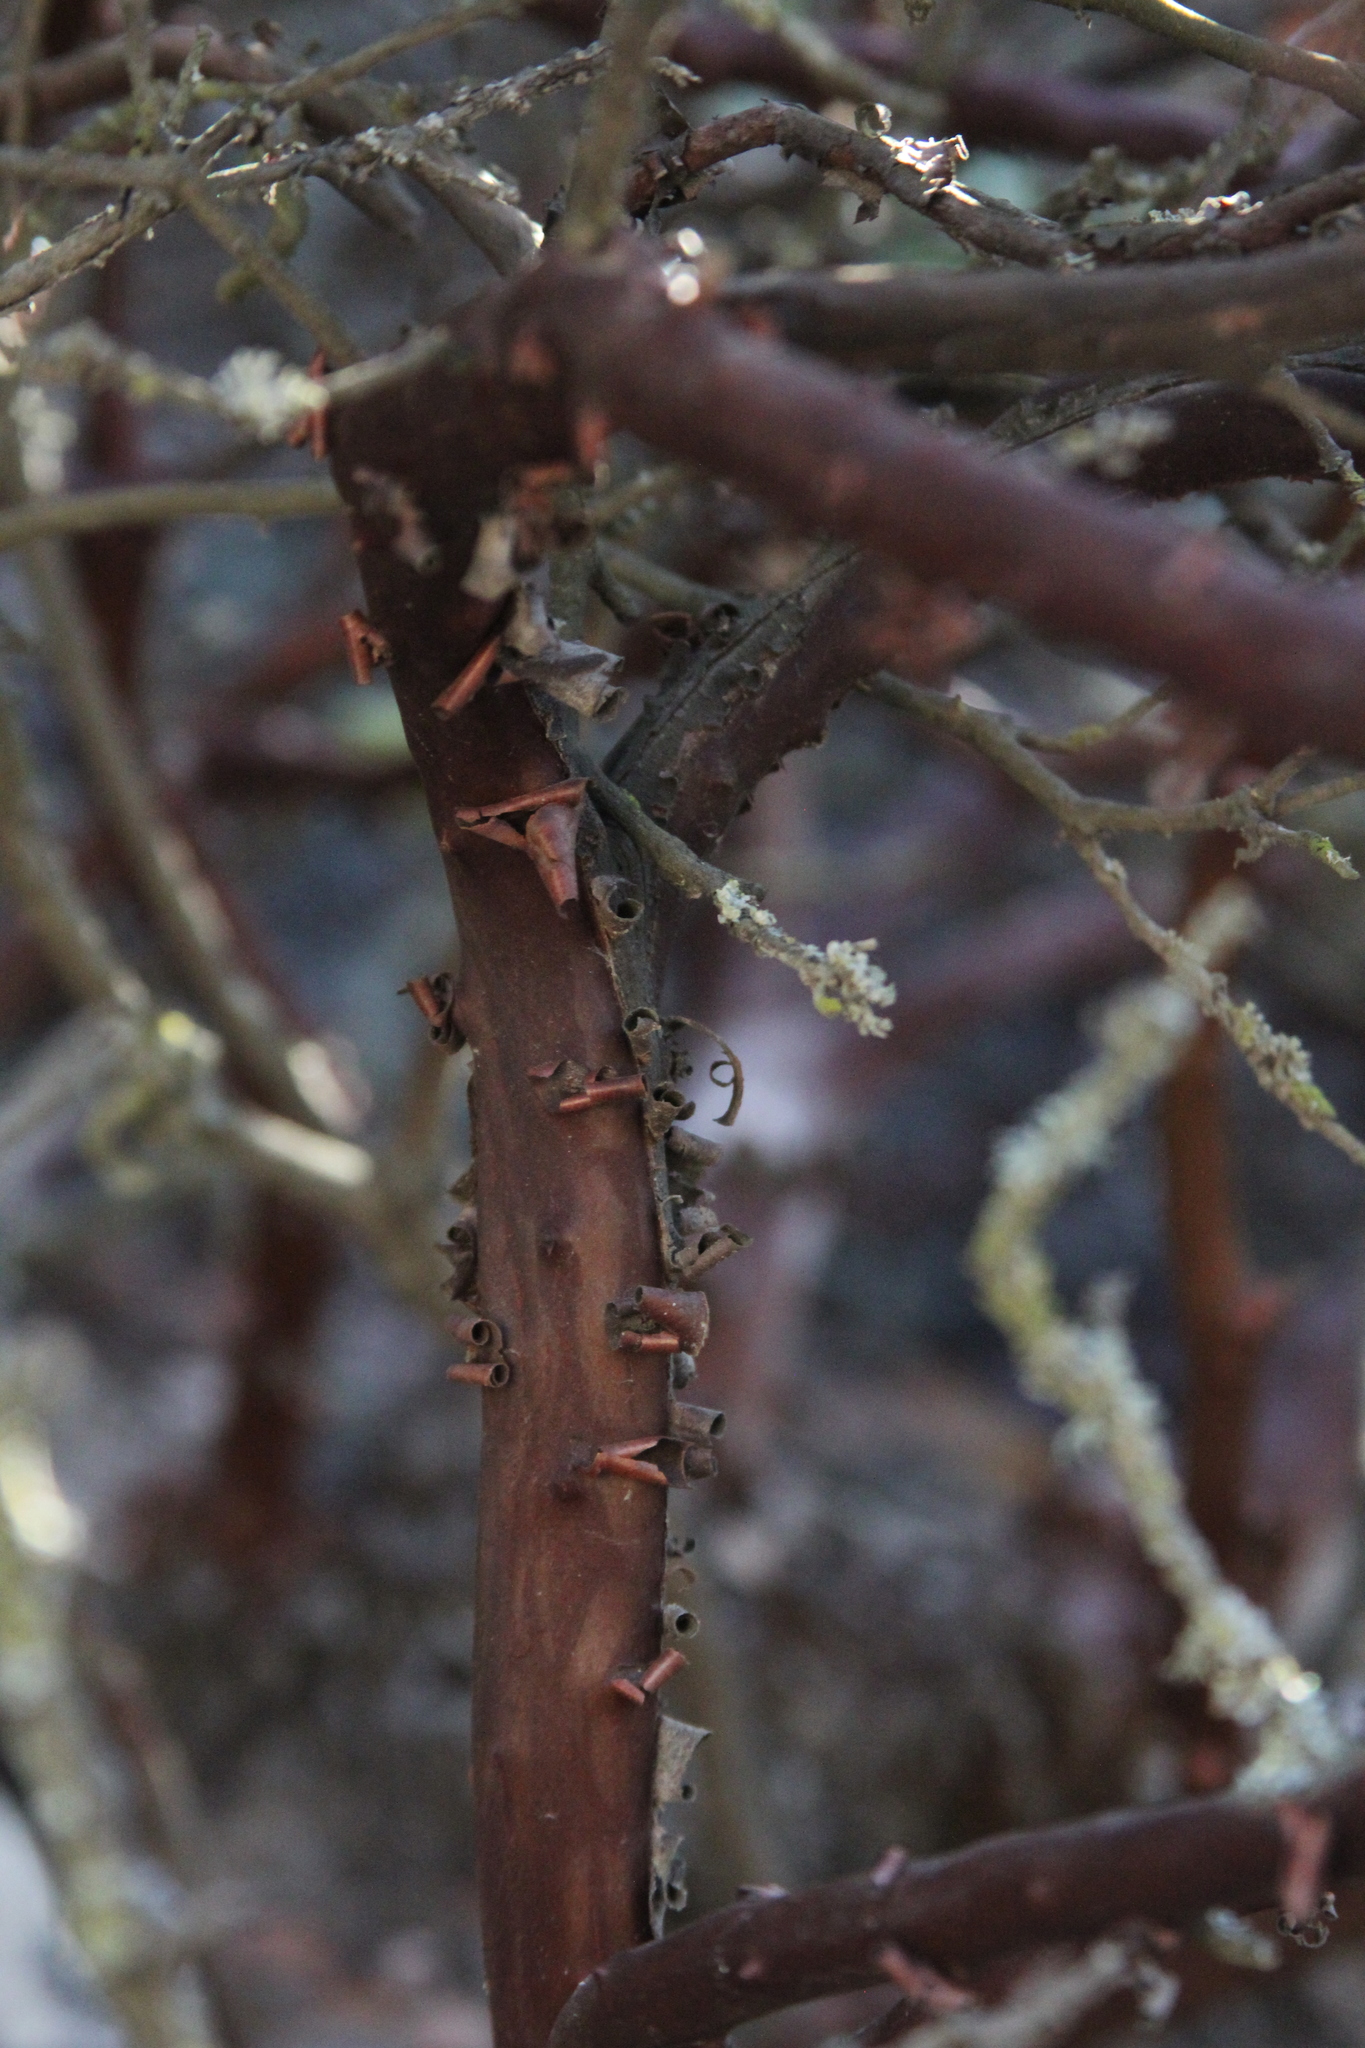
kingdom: Plantae
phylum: Tracheophyta
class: Magnoliopsida
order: Ericales
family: Ericaceae
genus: Arctostaphylos
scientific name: Arctostaphylos glandulosa
